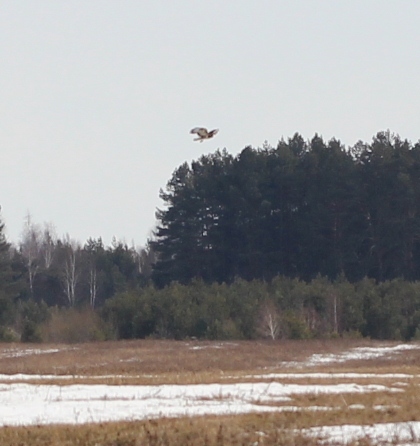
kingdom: Animalia
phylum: Chordata
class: Aves
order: Accipitriformes
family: Accipitridae
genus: Buteo
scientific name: Buteo lagopus
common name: Rough-legged buzzard
